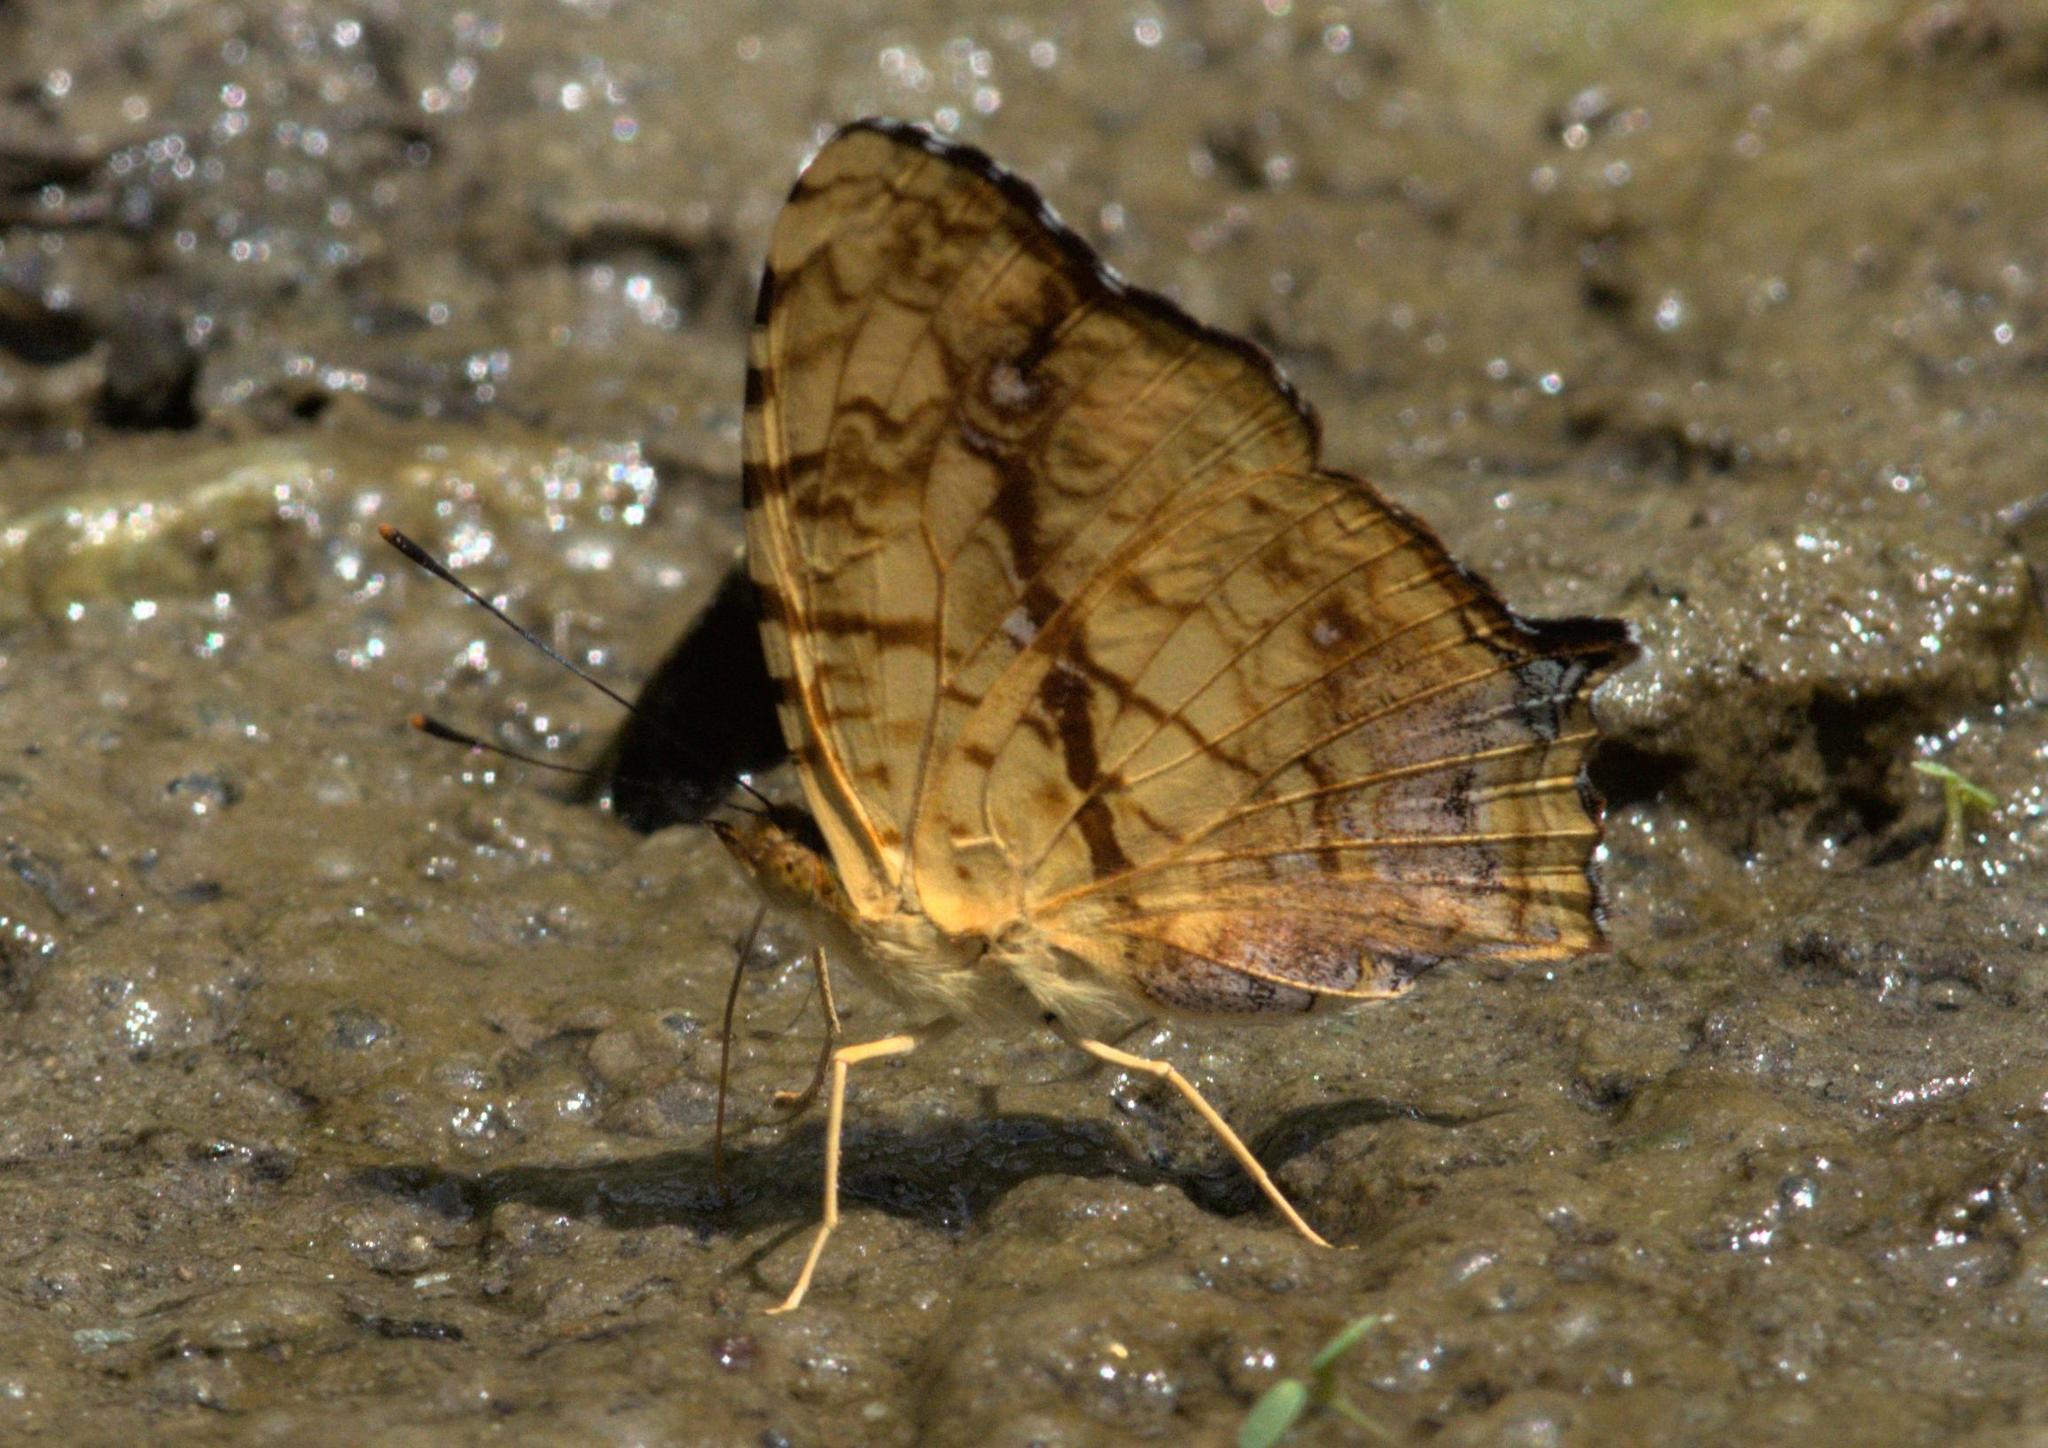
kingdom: Animalia
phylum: Arthropoda
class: Insecta
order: Lepidoptera
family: Nymphalidae
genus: Symbrenthia
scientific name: Symbrenthia hypselis
